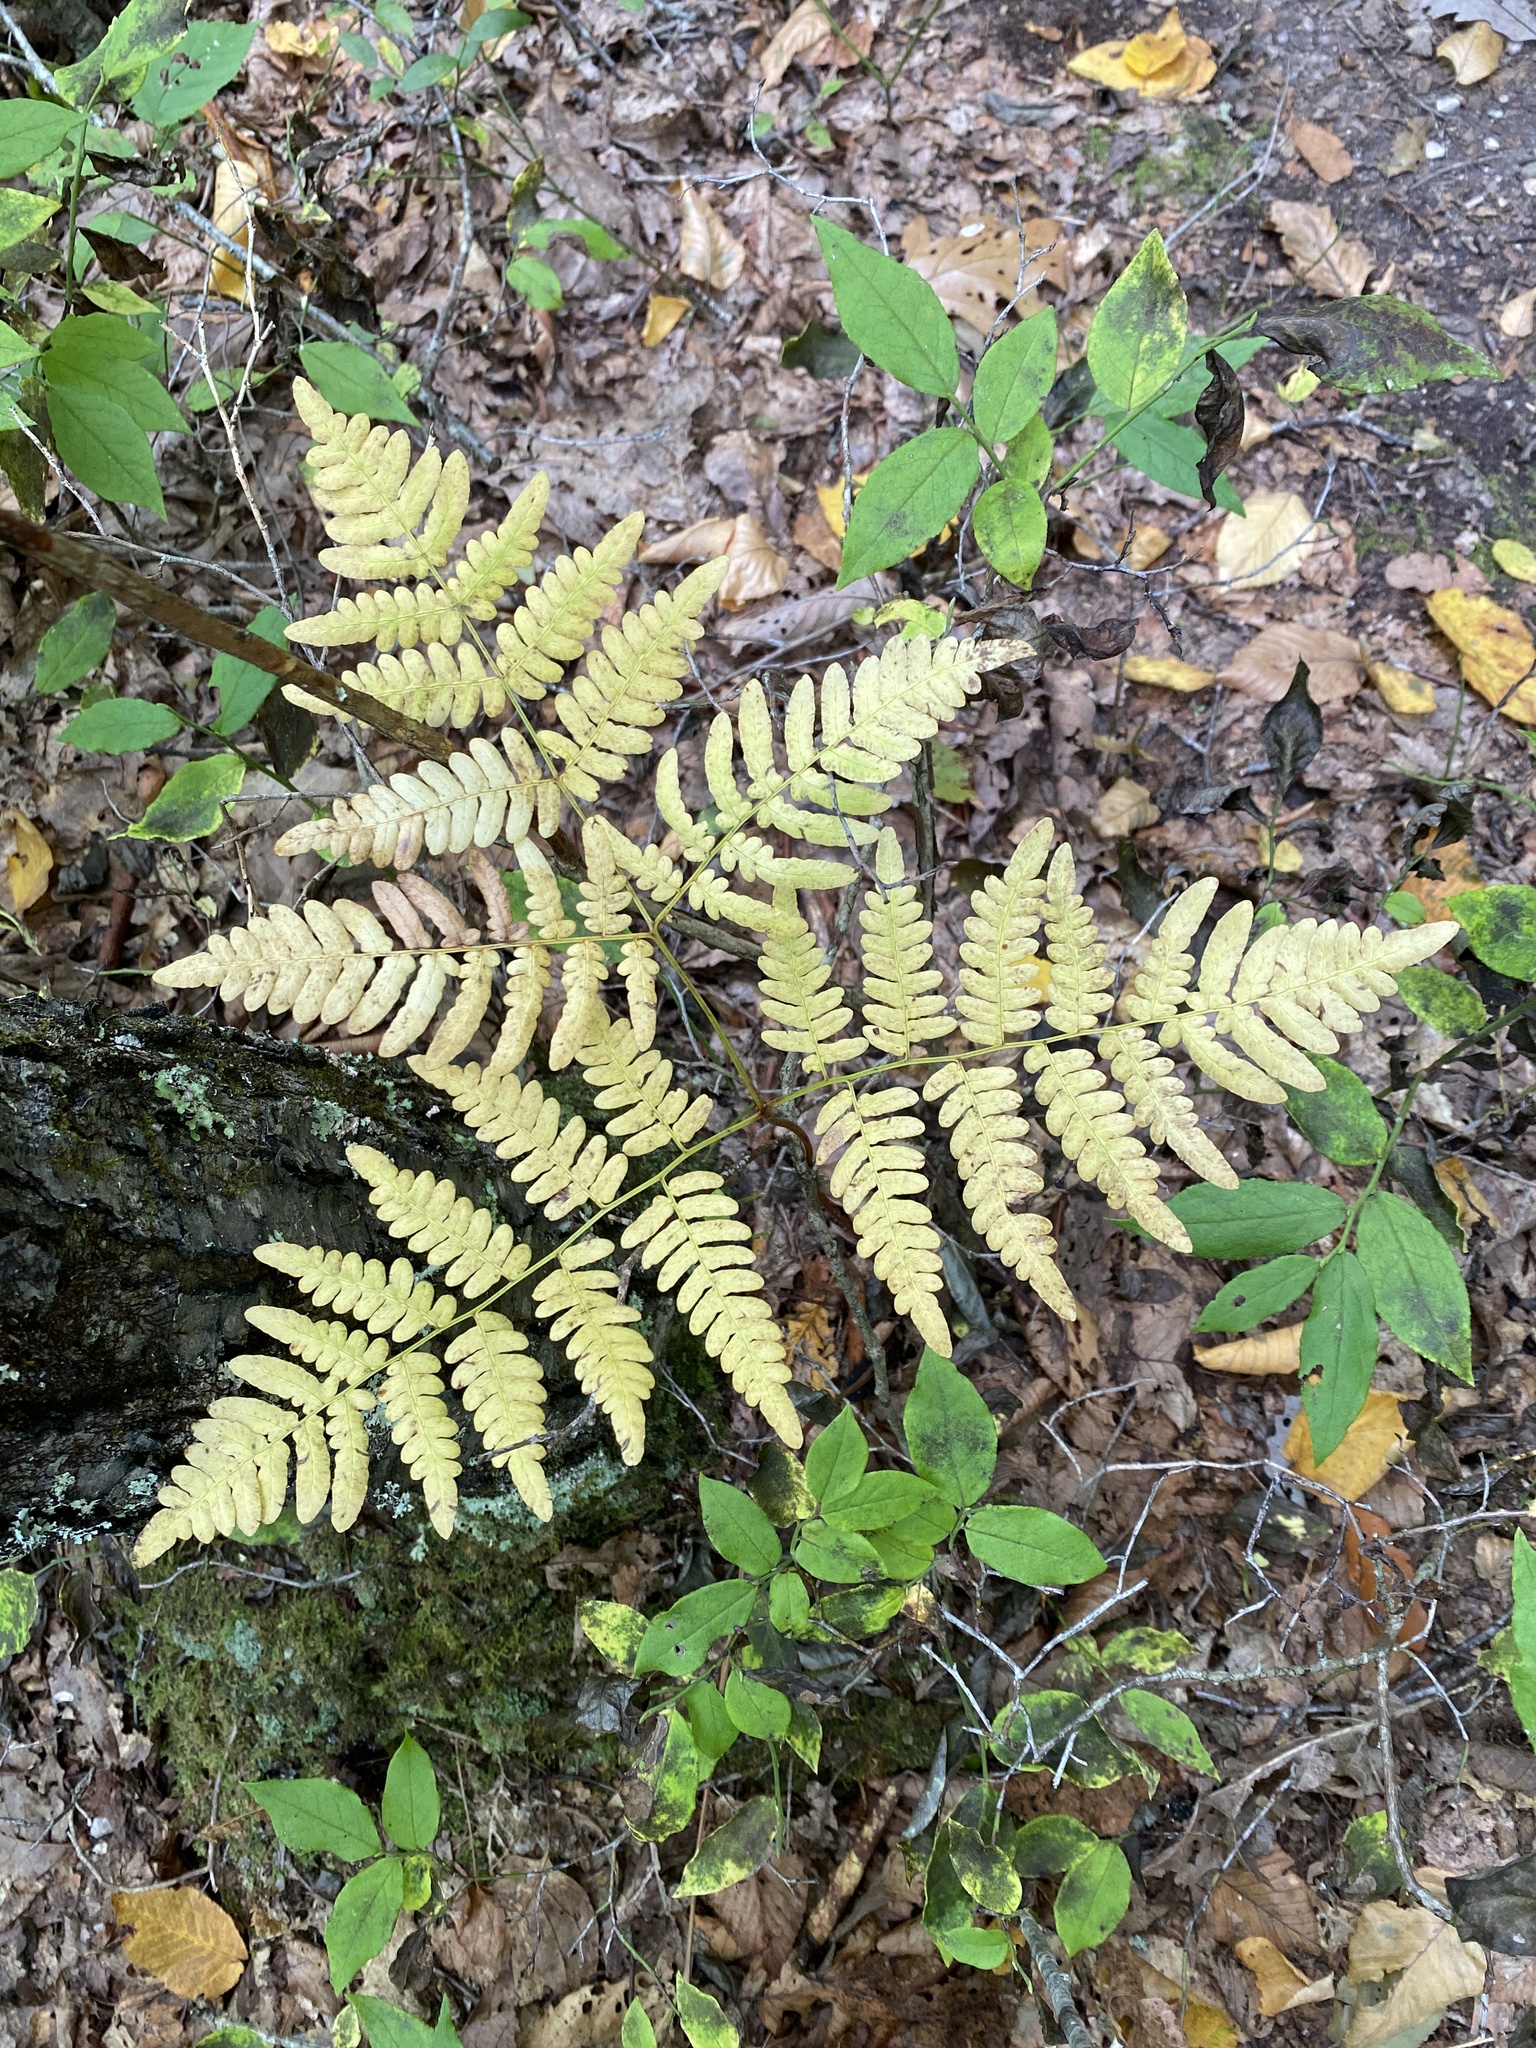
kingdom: Plantae
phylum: Tracheophyta
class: Polypodiopsida
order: Polypodiales
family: Dennstaedtiaceae
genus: Pteridium
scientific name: Pteridium aquilinum
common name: Bracken
